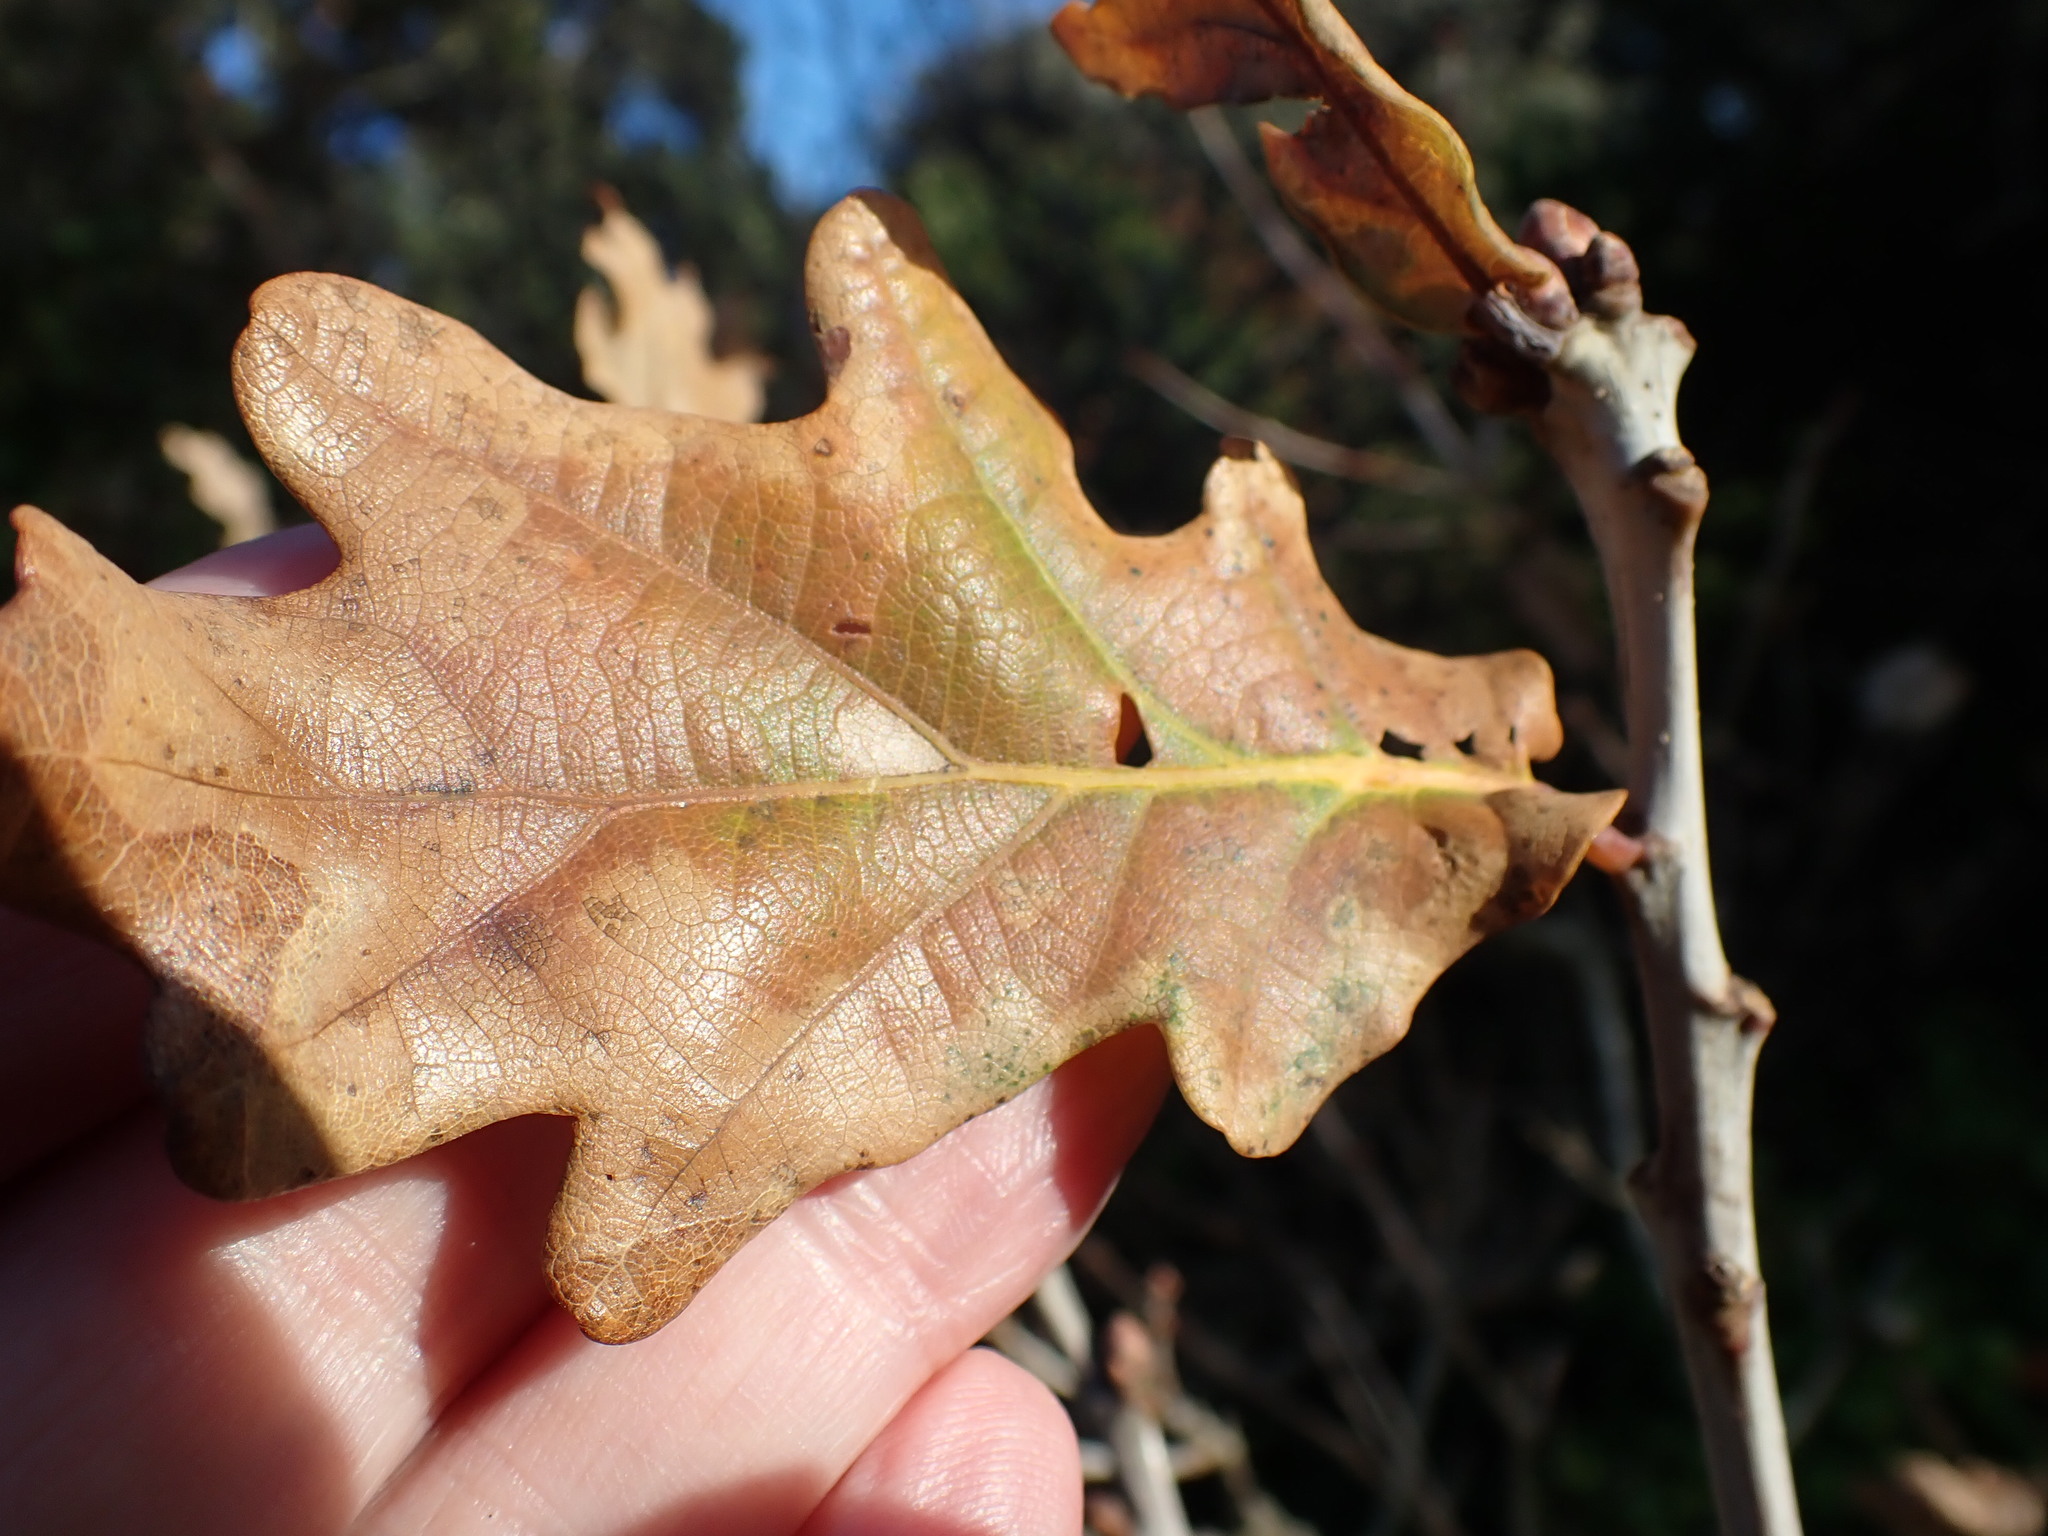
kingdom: Plantae
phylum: Tracheophyta
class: Magnoliopsida
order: Fagales
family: Fagaceae
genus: Quercus
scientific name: Quercus robur
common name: Pedunculate oak
